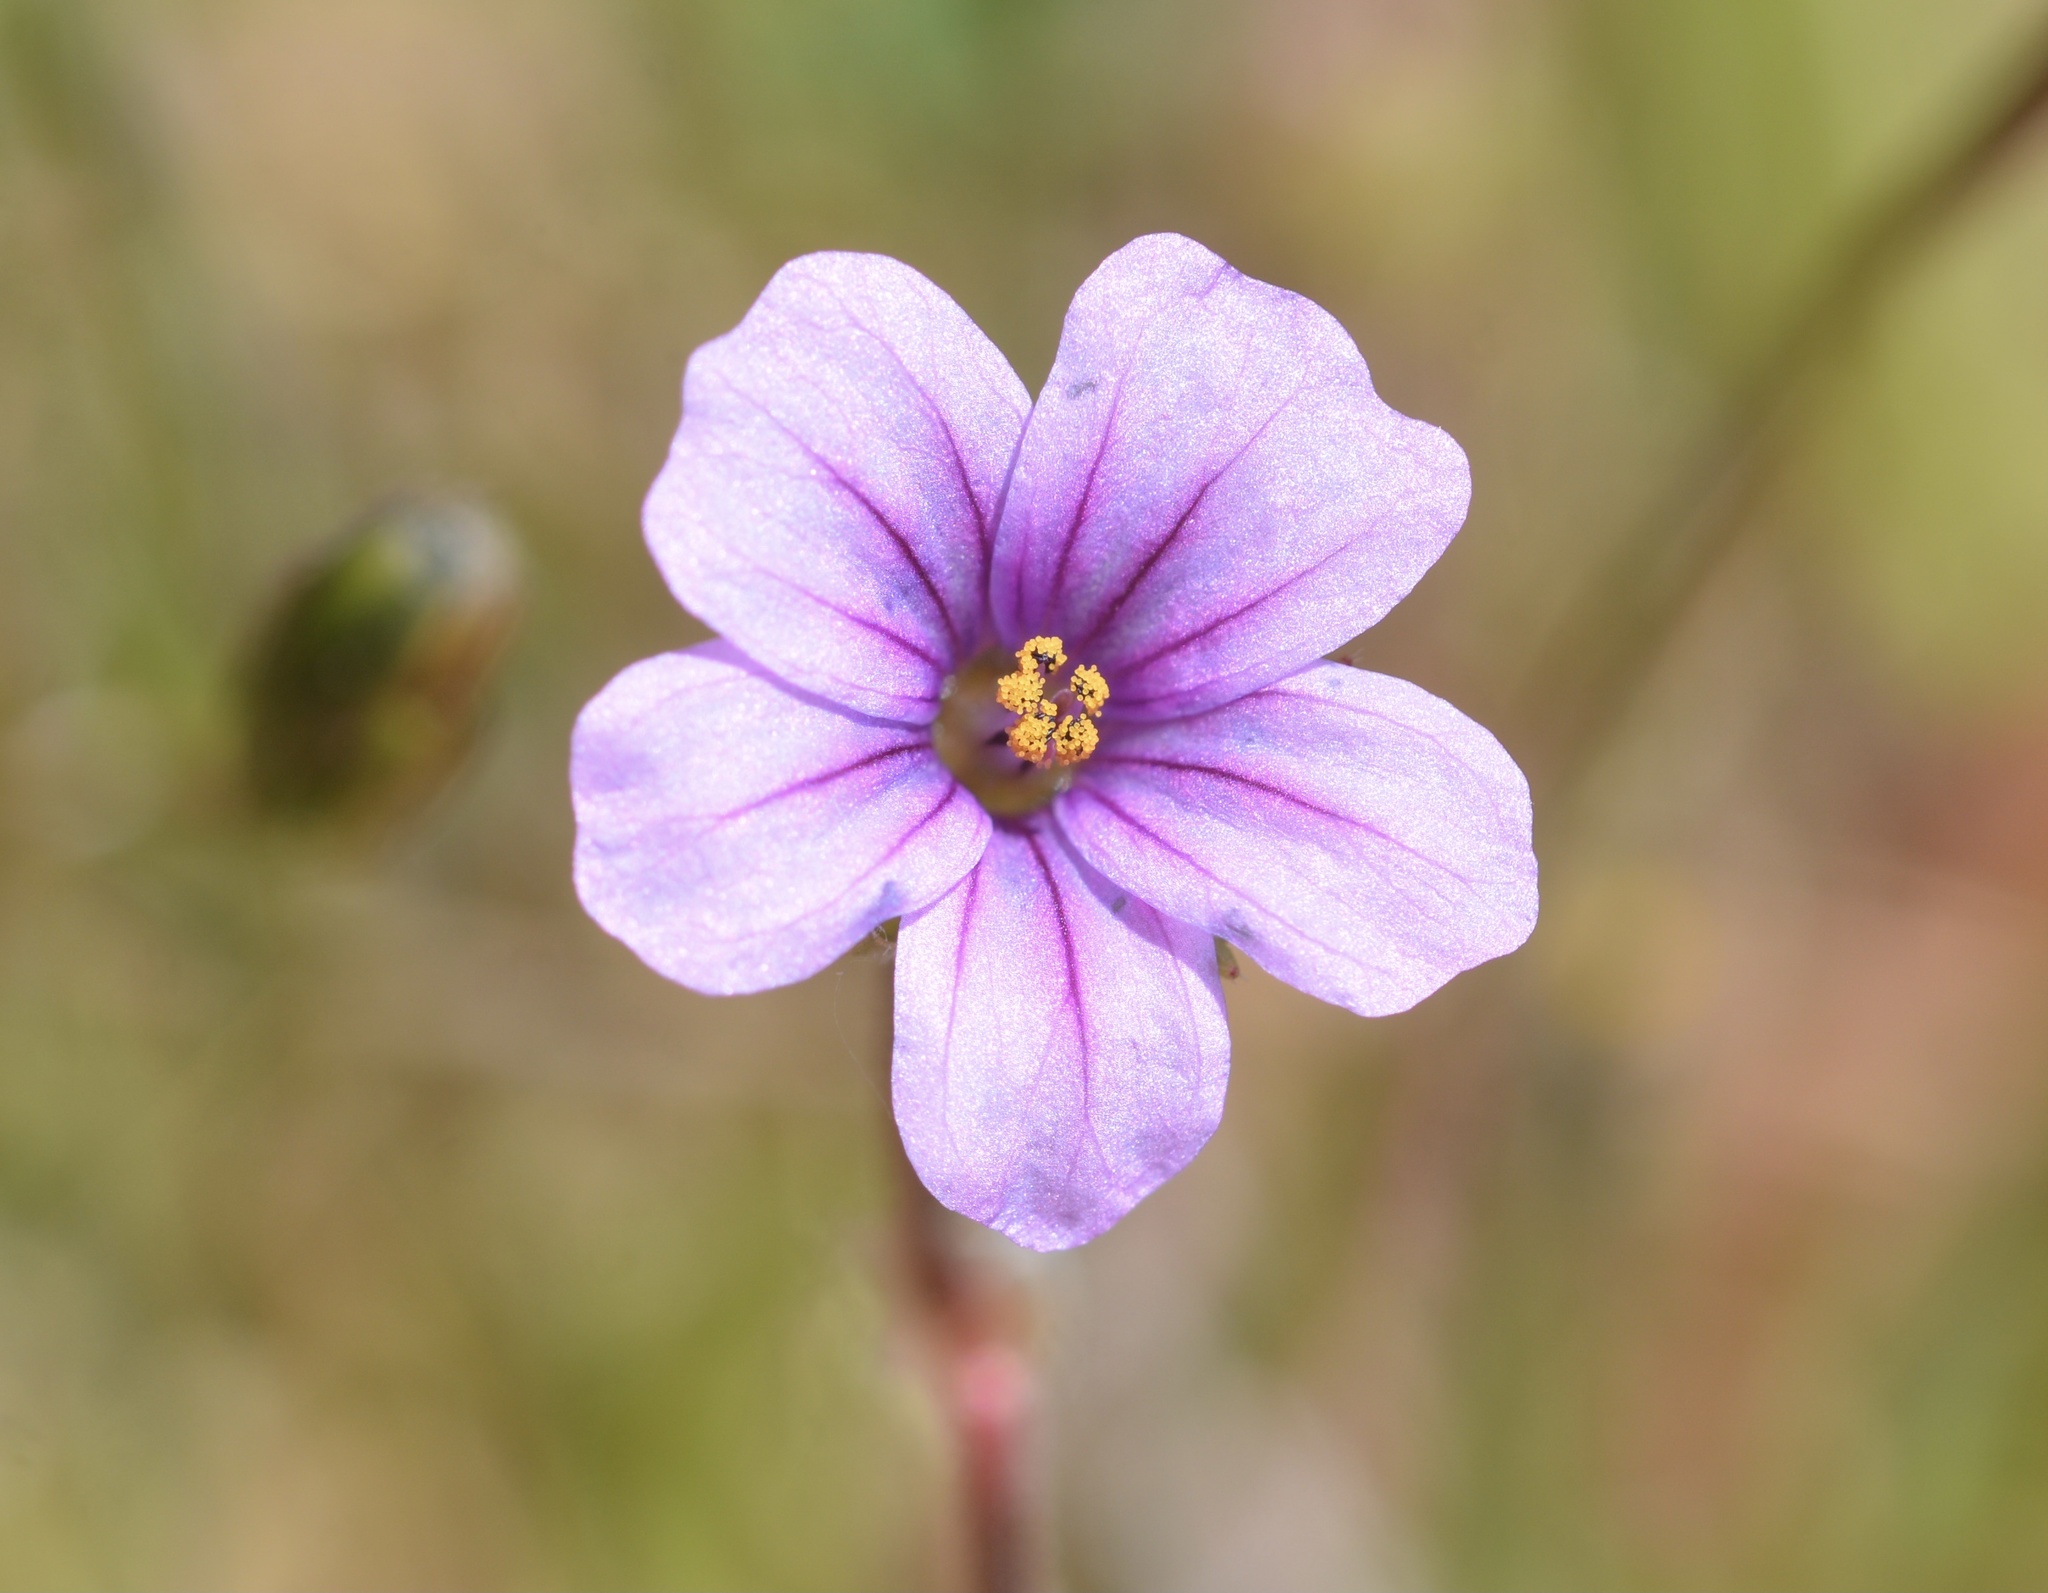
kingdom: Plantae
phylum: Tracheophyta
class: Magnoliopsida
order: Geraniales
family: Geraniaceae
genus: Erodium
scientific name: Erodium botrys
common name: Mediterranean stork's-bill
